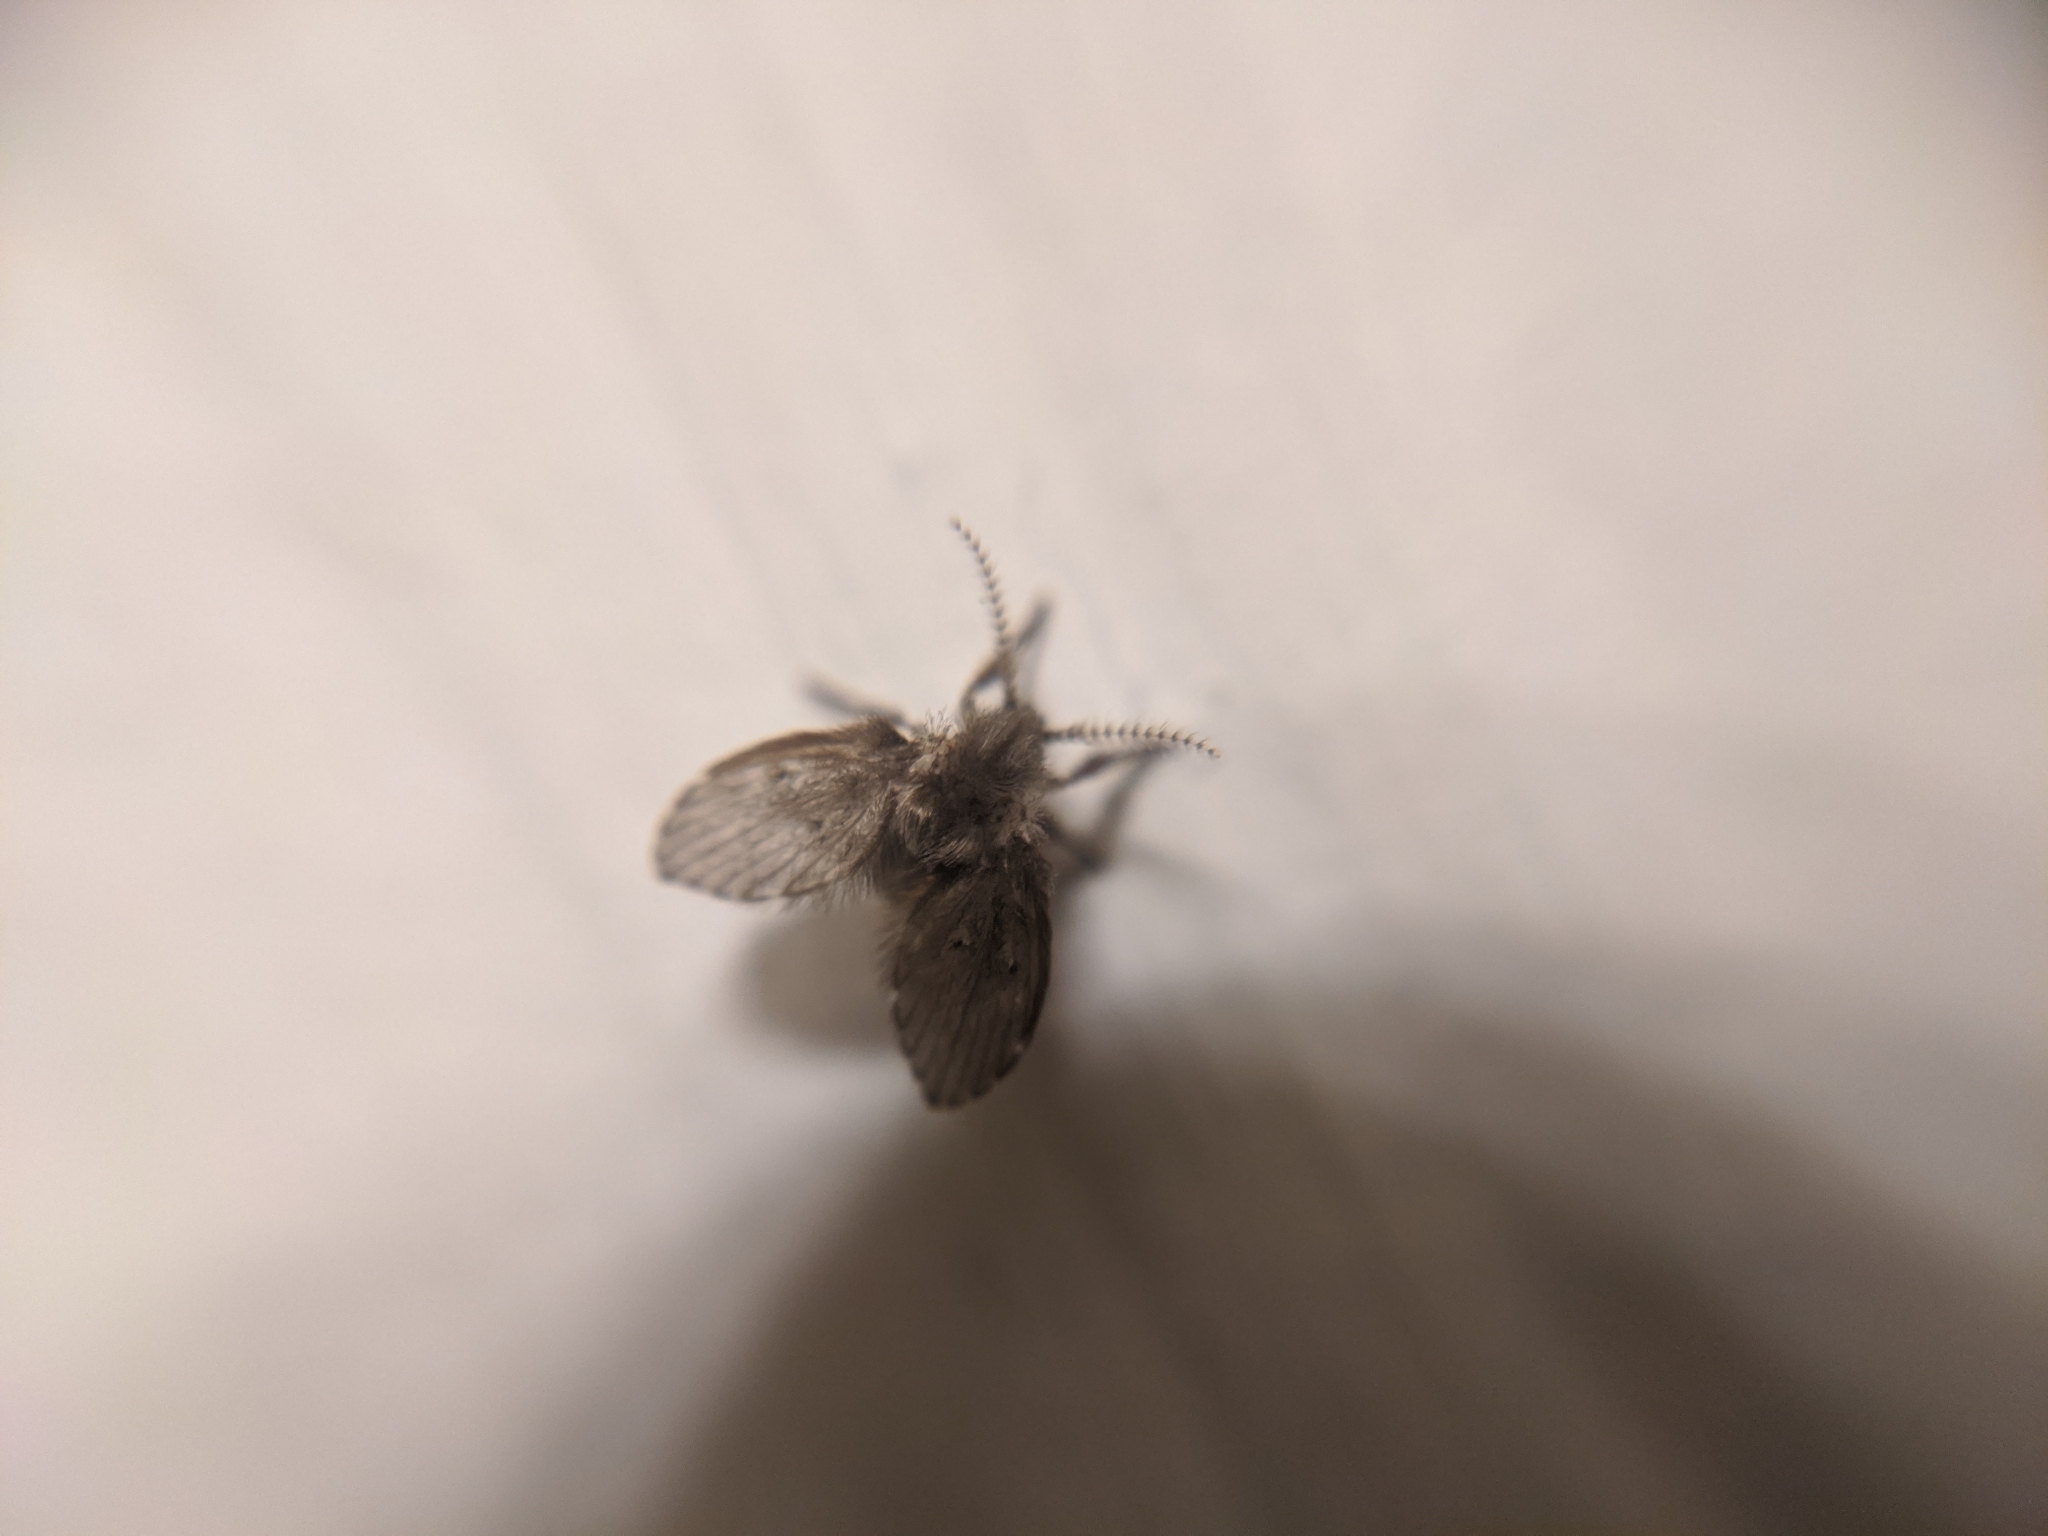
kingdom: Animalia
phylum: Arthropoda
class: Insecta
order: Diptera
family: Psychodidae
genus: Clogmia
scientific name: Clogmia albipunctatus
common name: White-spotted moth fly
